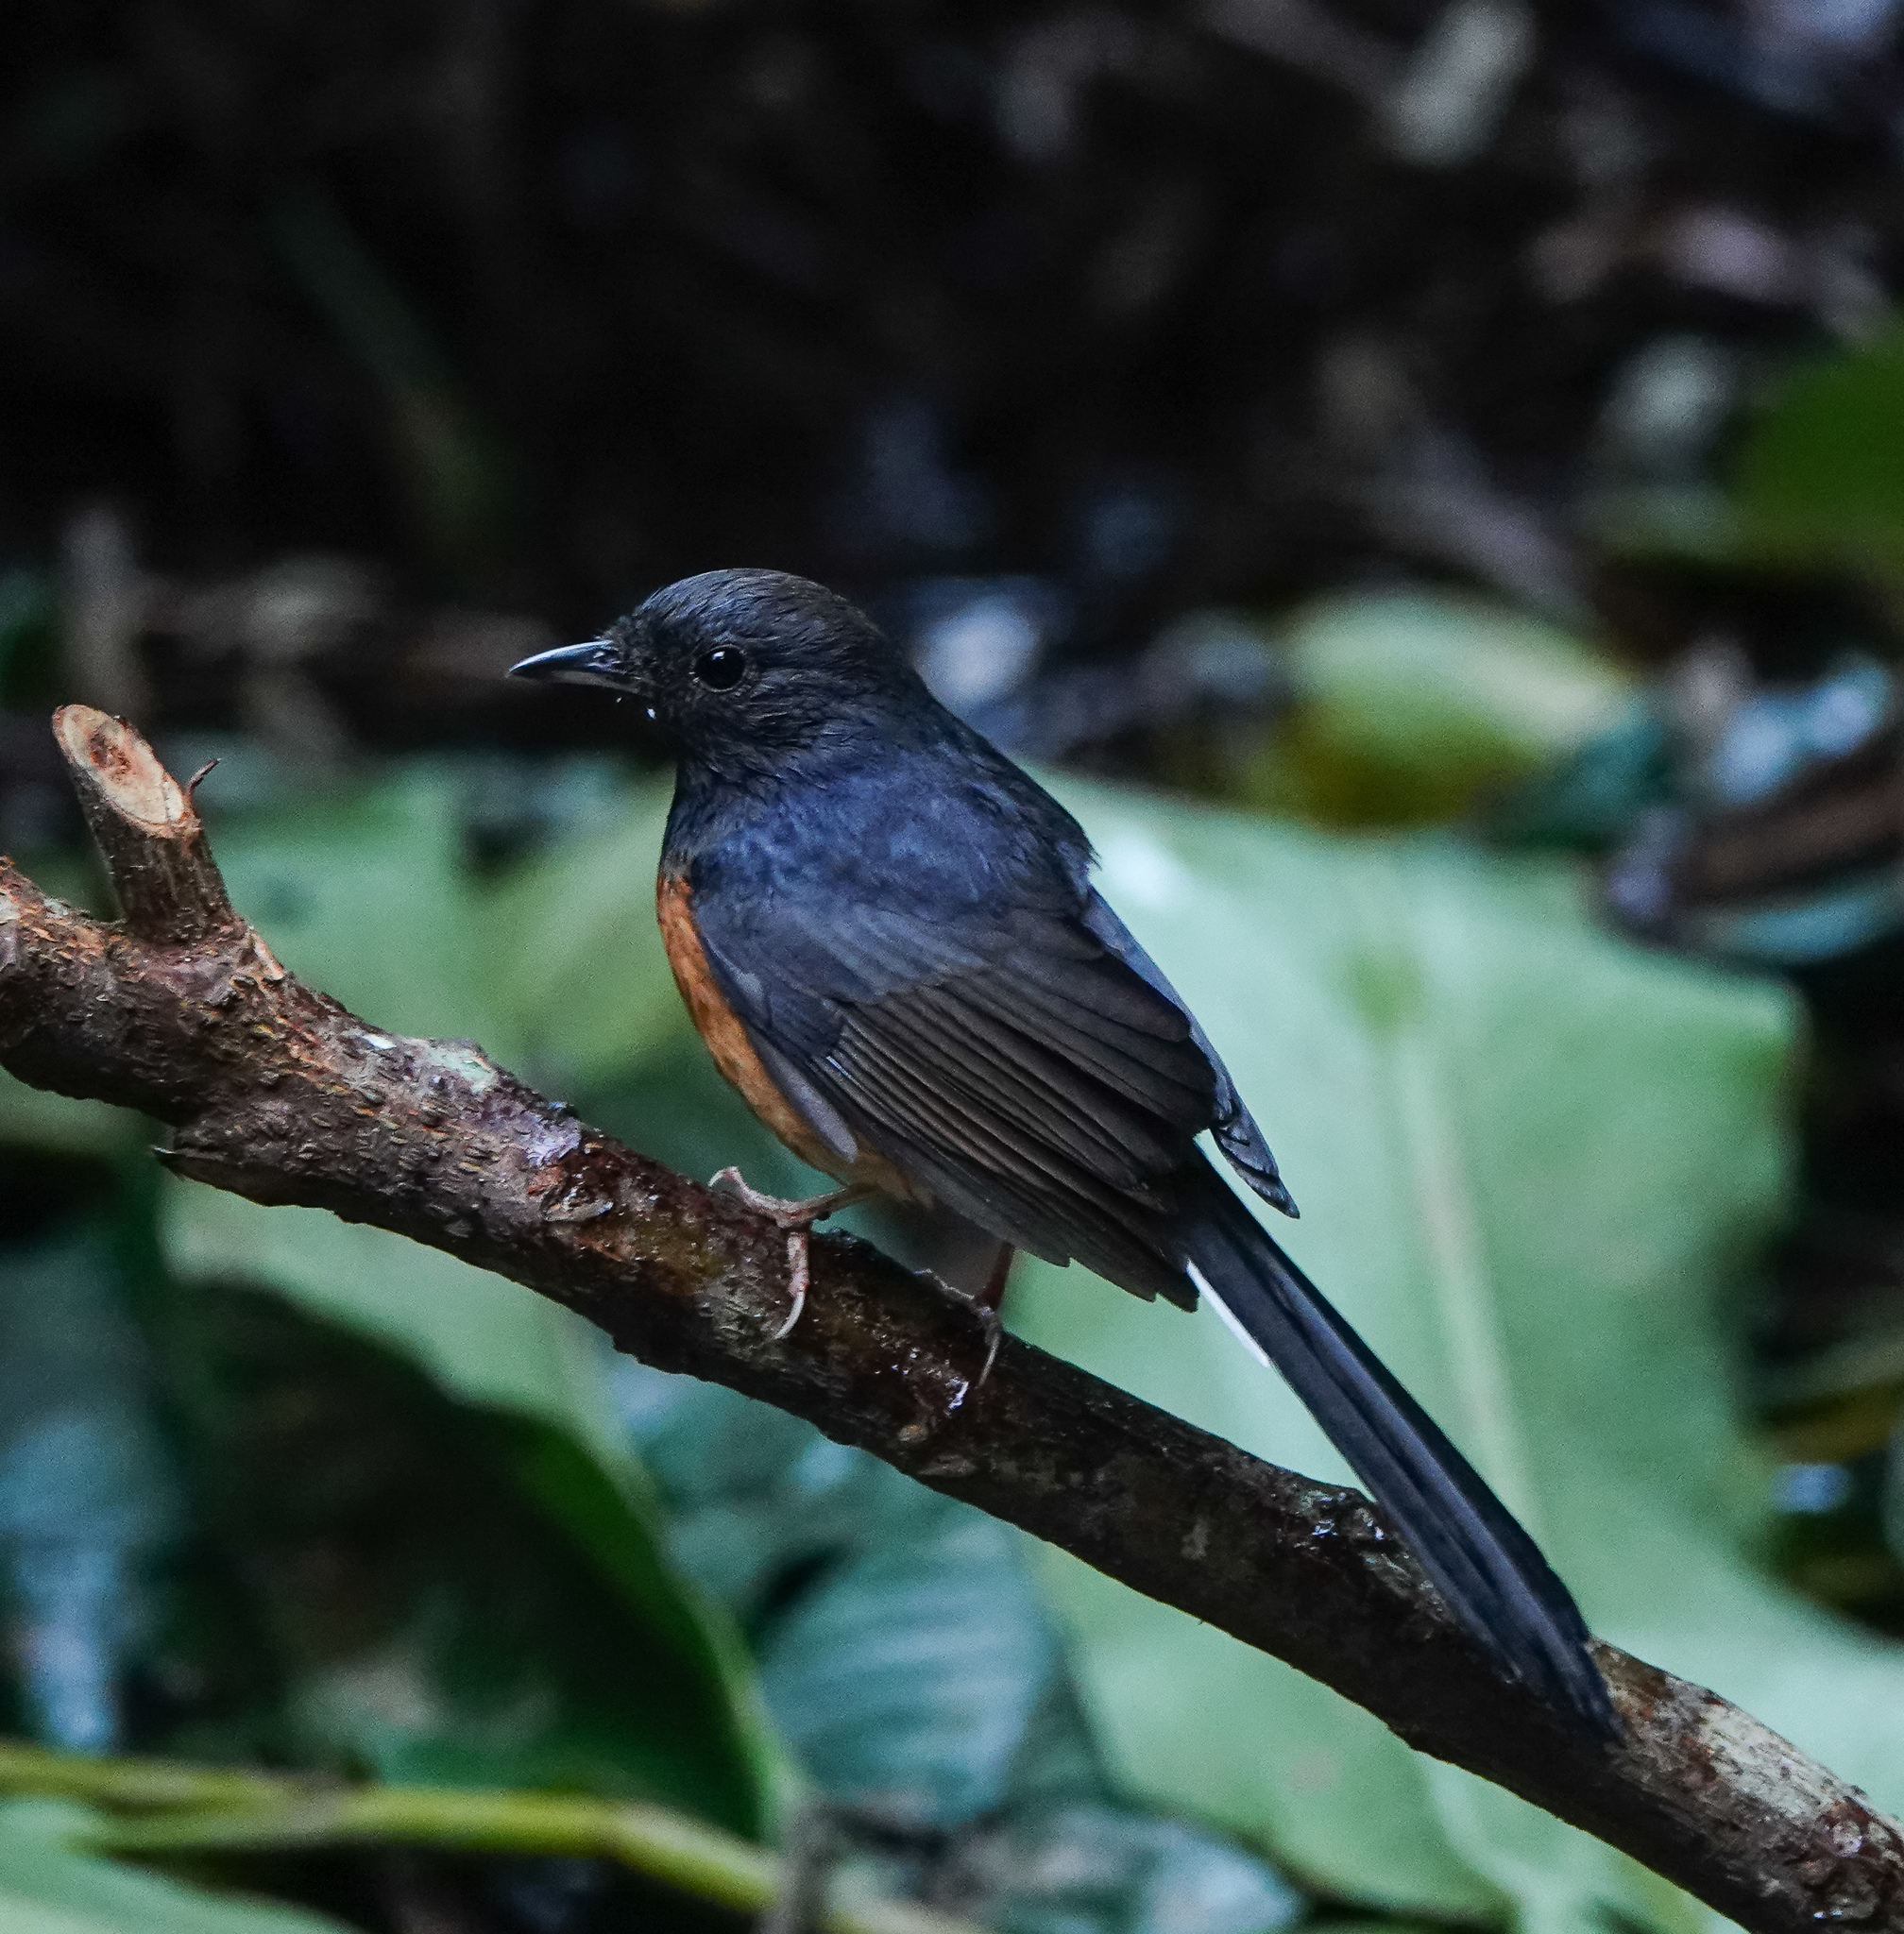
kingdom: Animalia
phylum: Chordata
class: Aves
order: Passeriformes
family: Muscicapidae
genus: Copsychus
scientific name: Copsychus malabaricus
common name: White-rumped shama
